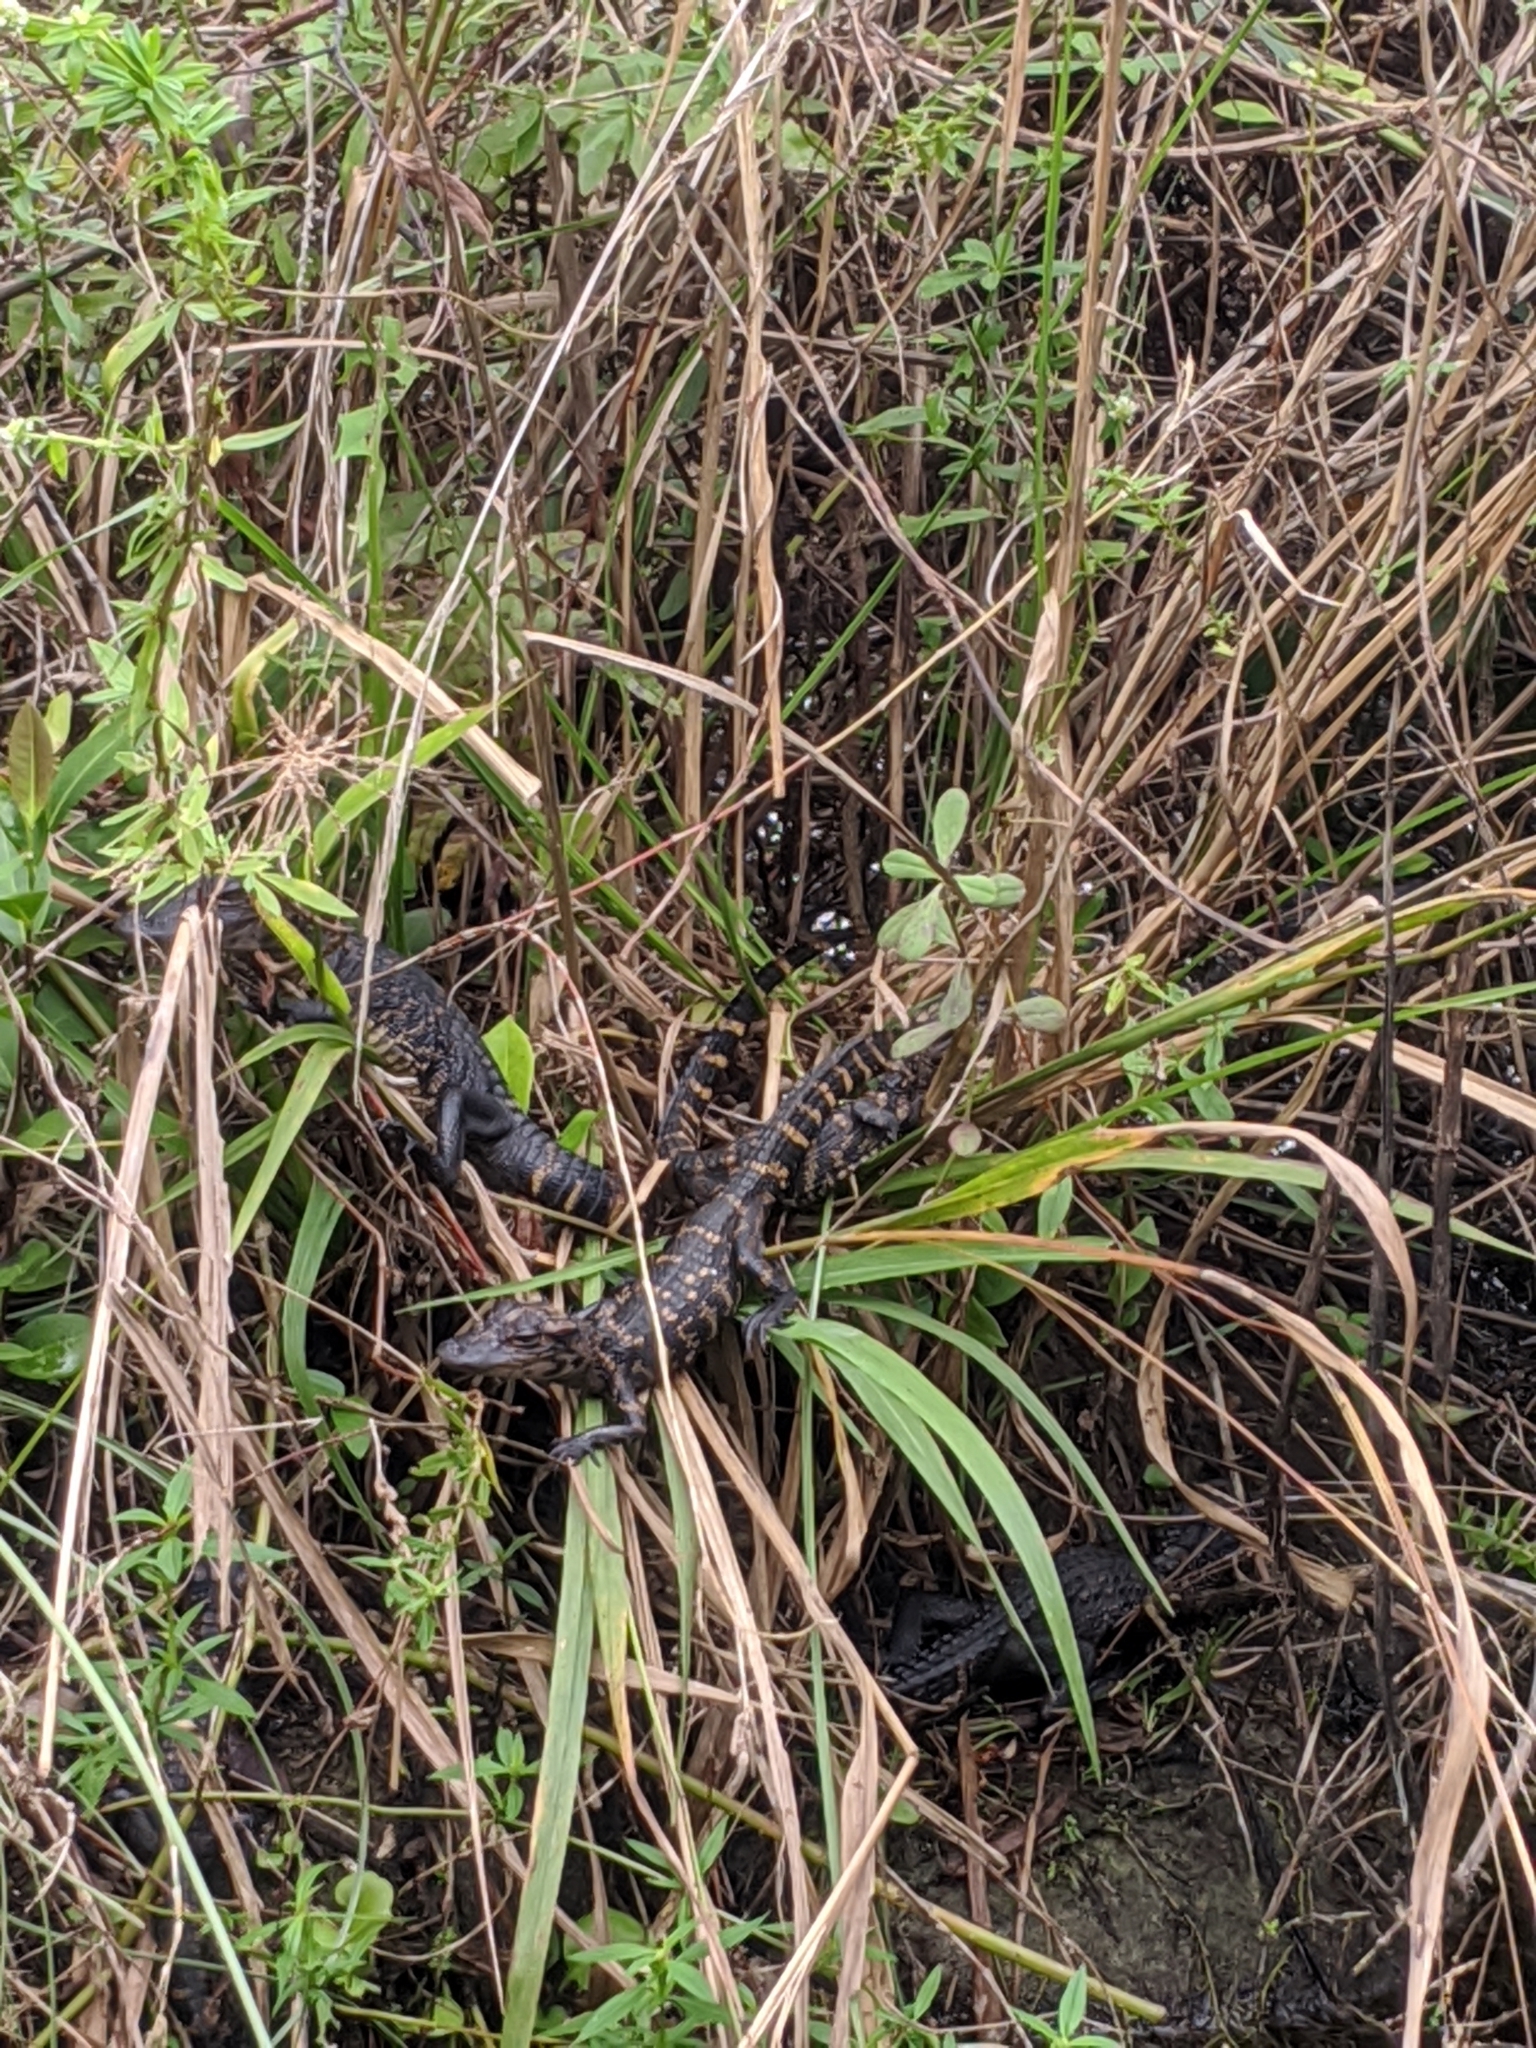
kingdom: Animalia
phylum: Chordata
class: Crocodylia
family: Alligatoridae
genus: Alligator
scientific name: Alligator mississippiensis
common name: American alligator
